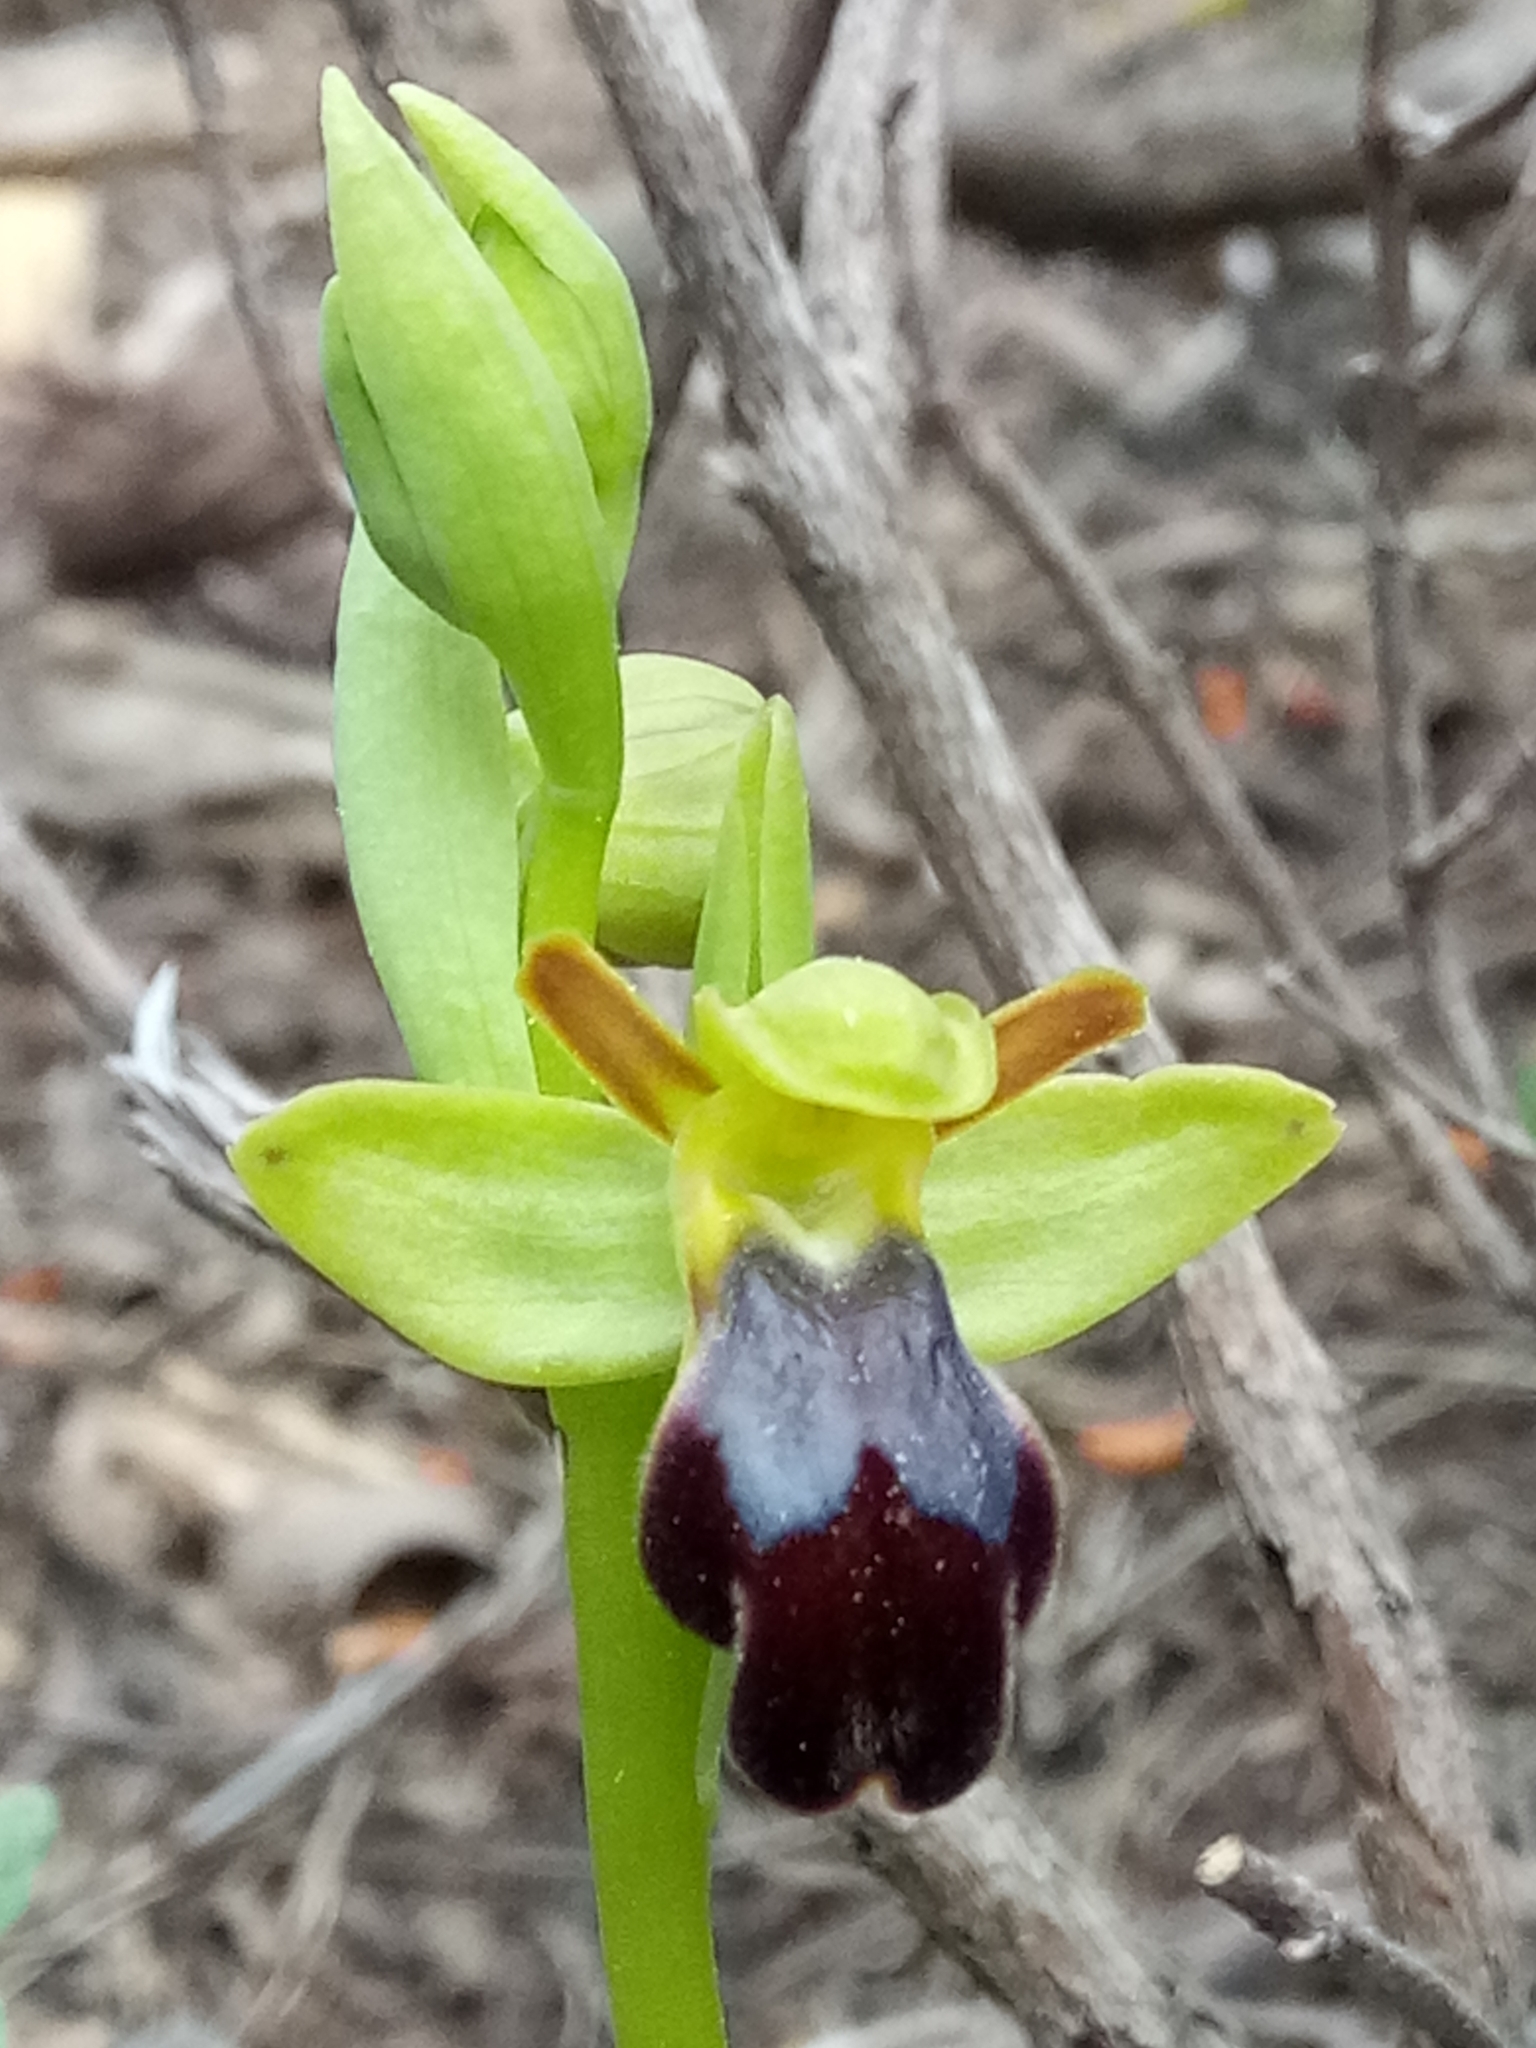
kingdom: Plantae
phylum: Tracheophyta
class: Liliopsida
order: Asparagales
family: Orchidaceae
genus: Ophrys
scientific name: Ophrys fusca
